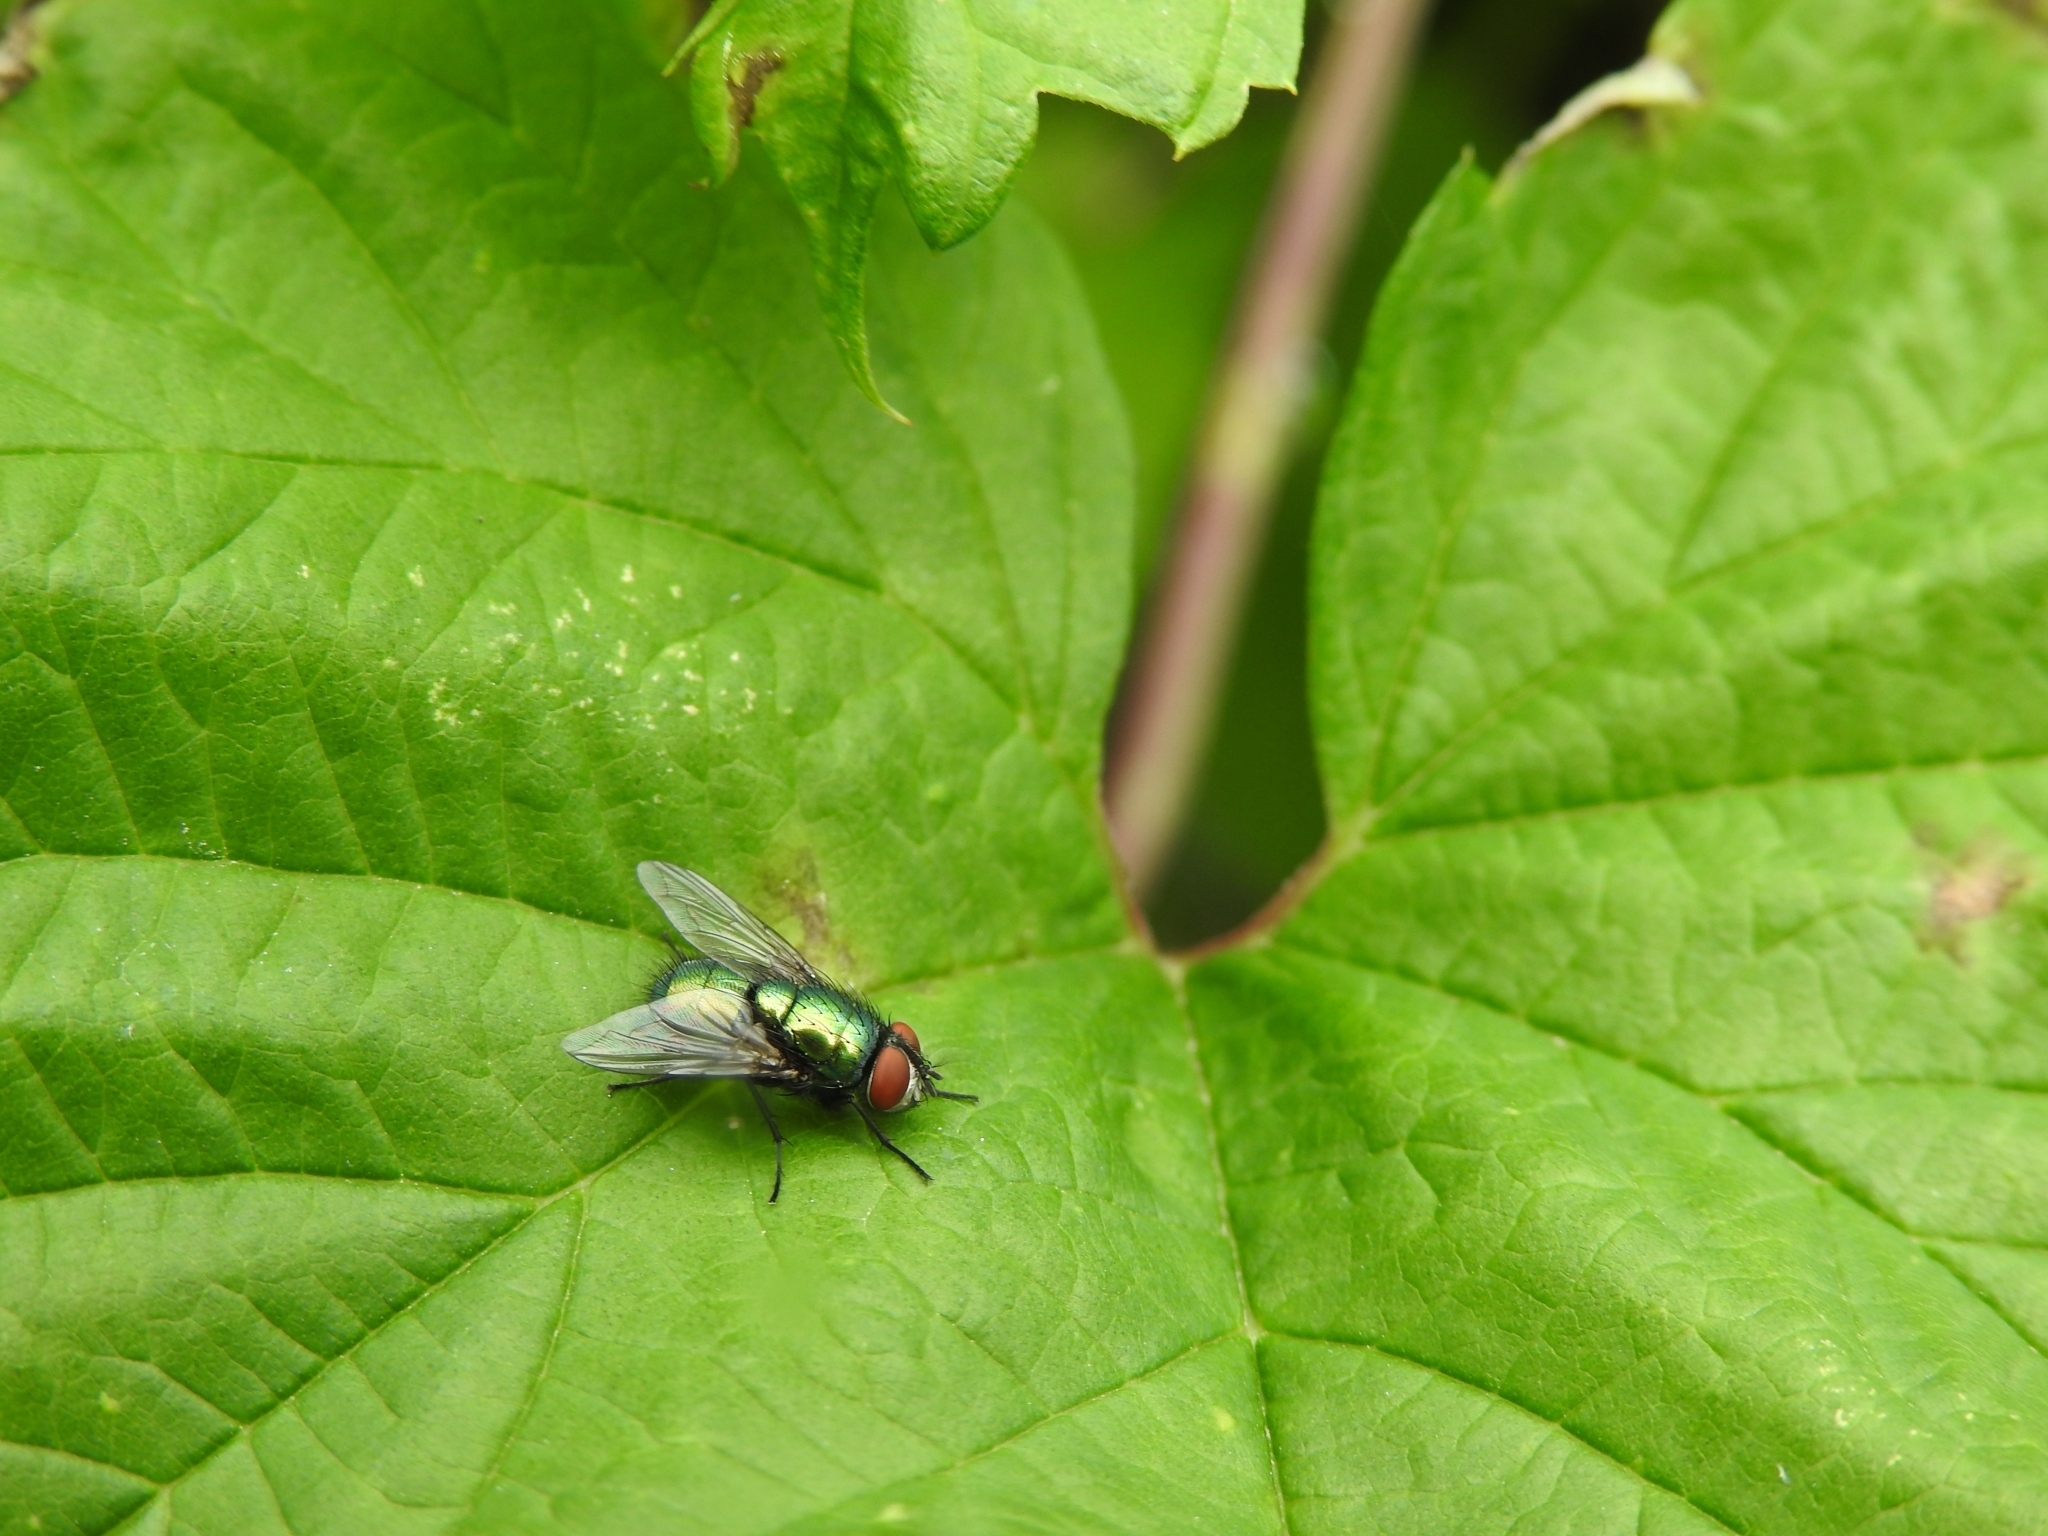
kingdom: Animalia
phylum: Arthropoda
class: Insecta
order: Diptera
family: Calliphoridae
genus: Lucilia
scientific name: Lucilia sericata
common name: Blow fly
